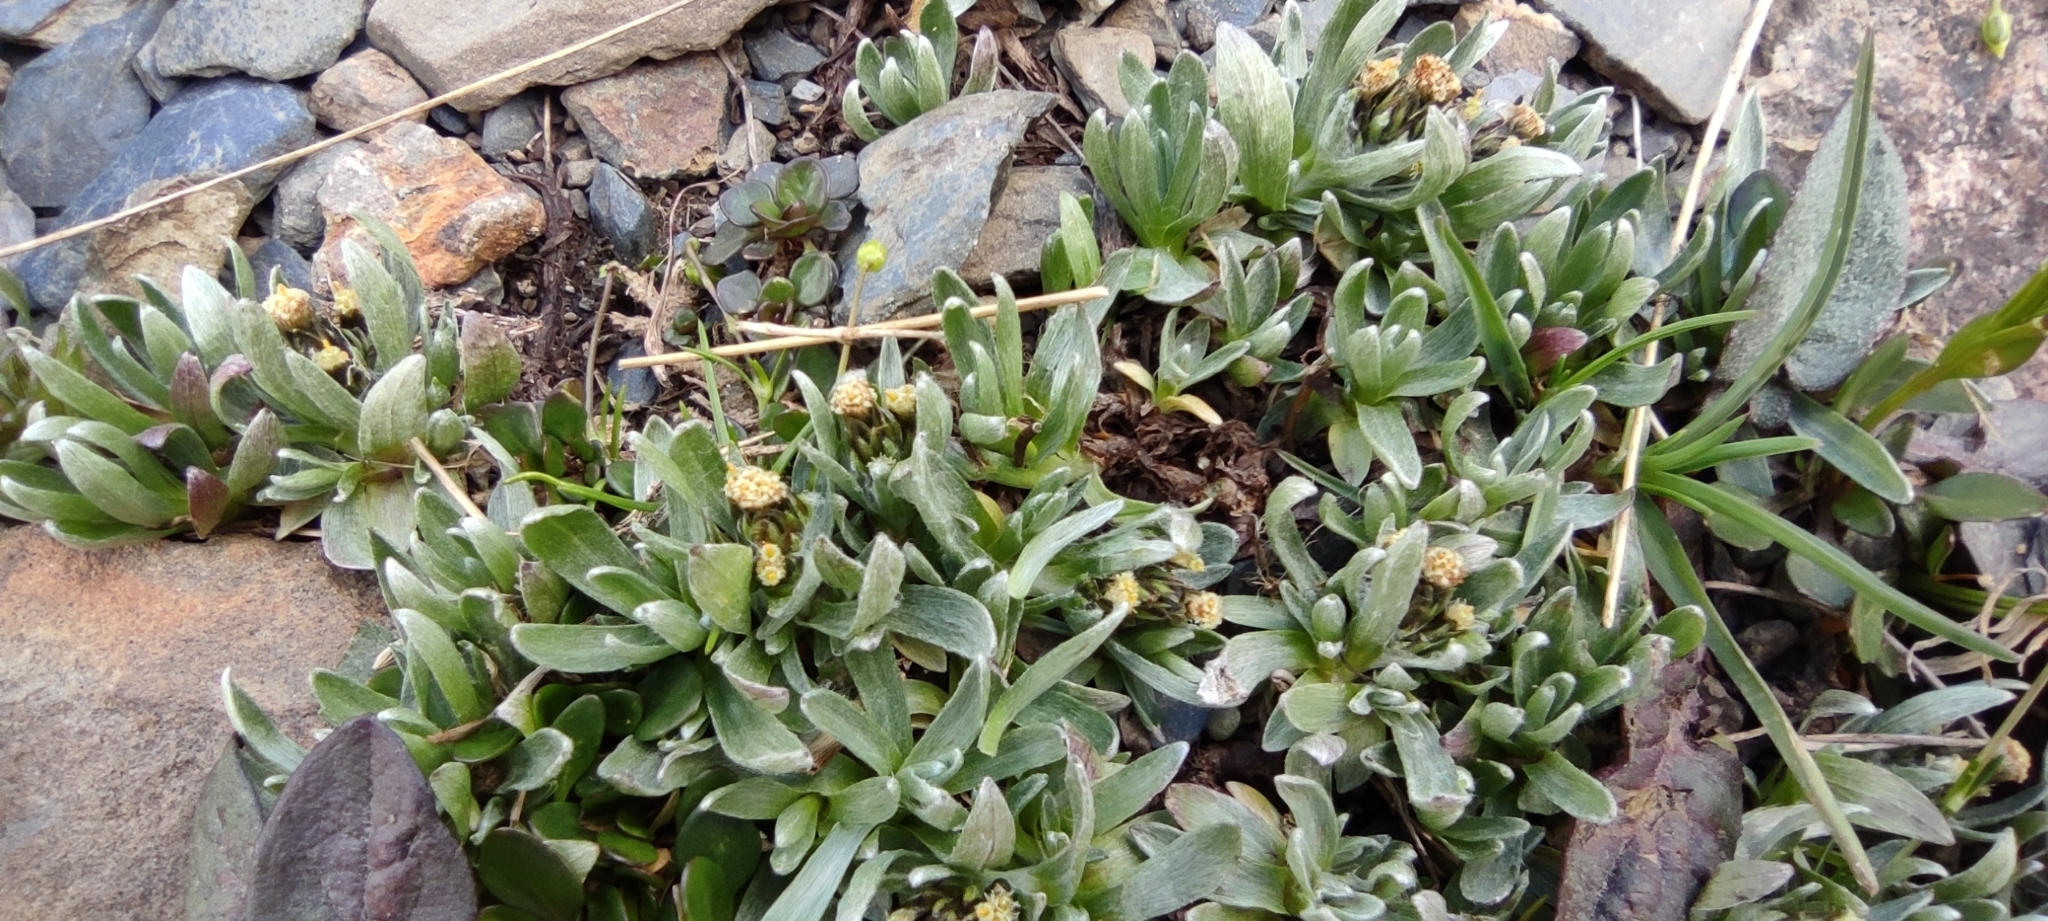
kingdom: Plantae
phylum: Tracheophyta
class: Magnoliopsida
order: Asterales
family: Asteraceae
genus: Omalotheca
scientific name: Omalotheca supina
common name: Alpine arctic-cudweed
